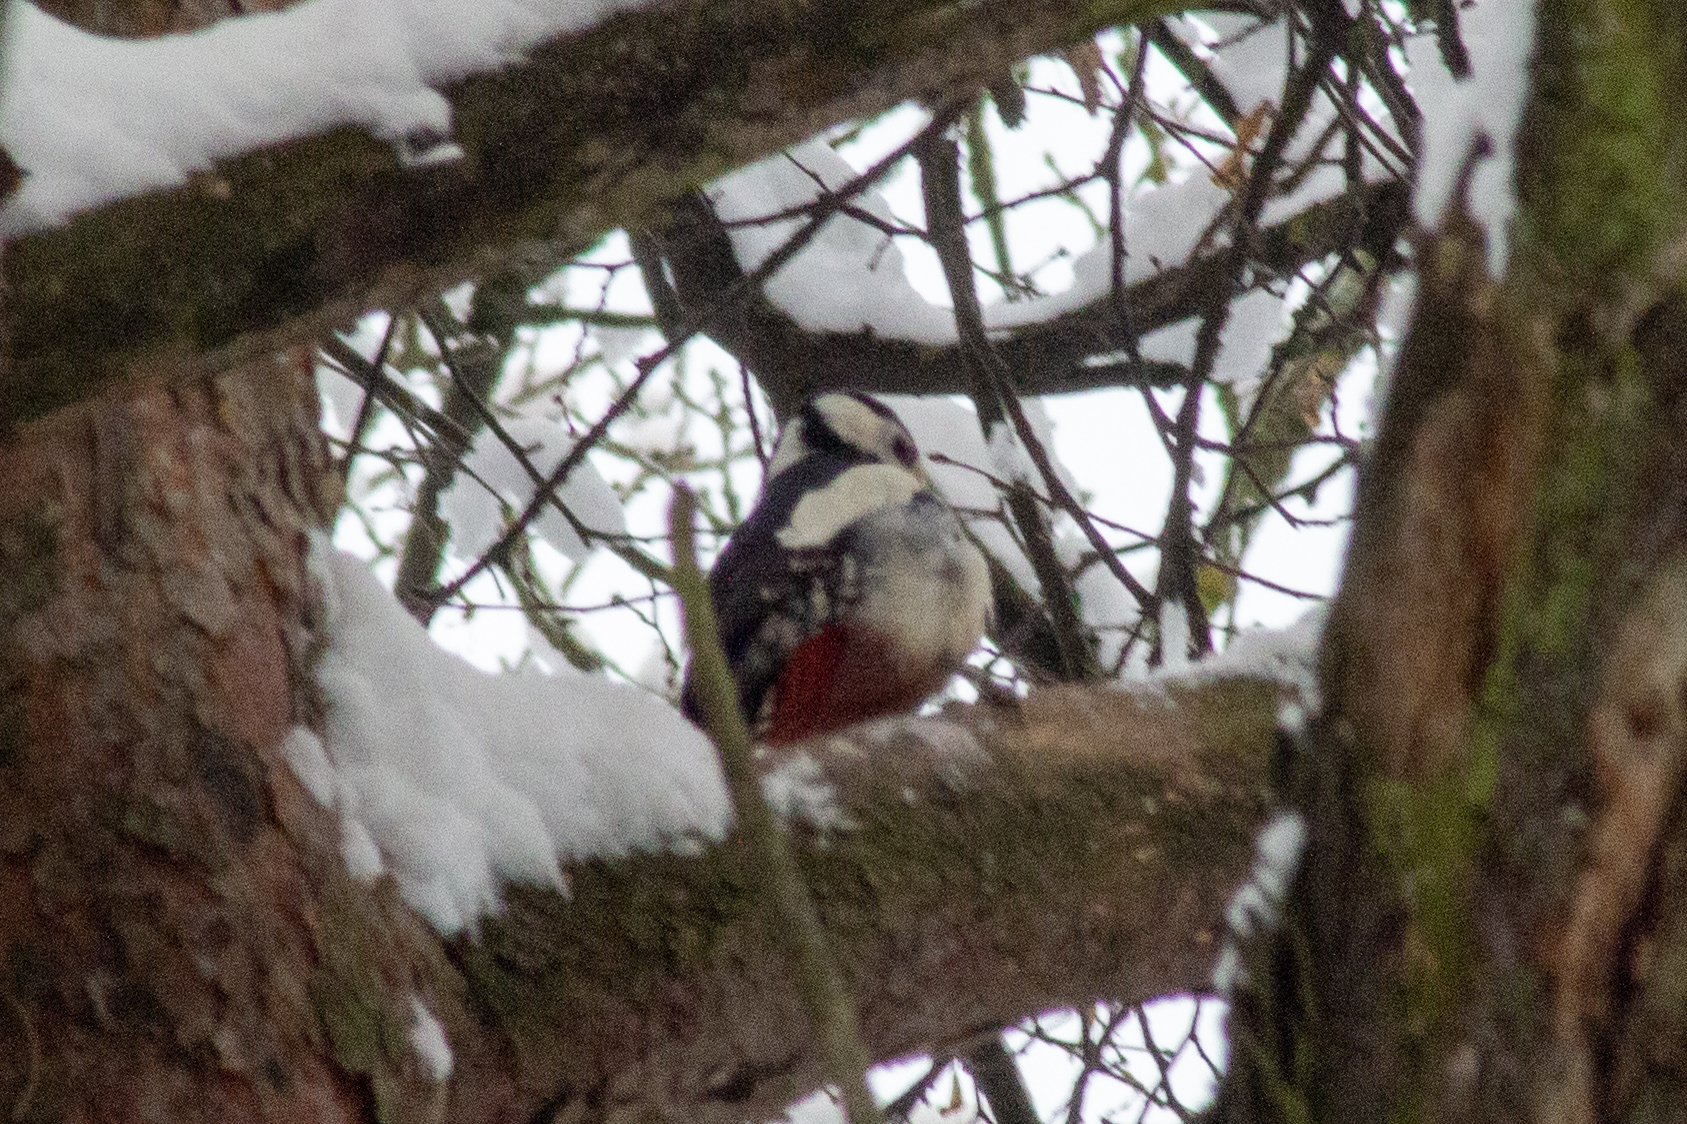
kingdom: Animalia
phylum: Chordata
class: Aves
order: Piciformes
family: Picidae
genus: Dendrocopos
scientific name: Dendrocopos major
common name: Great spotted woodpecker
